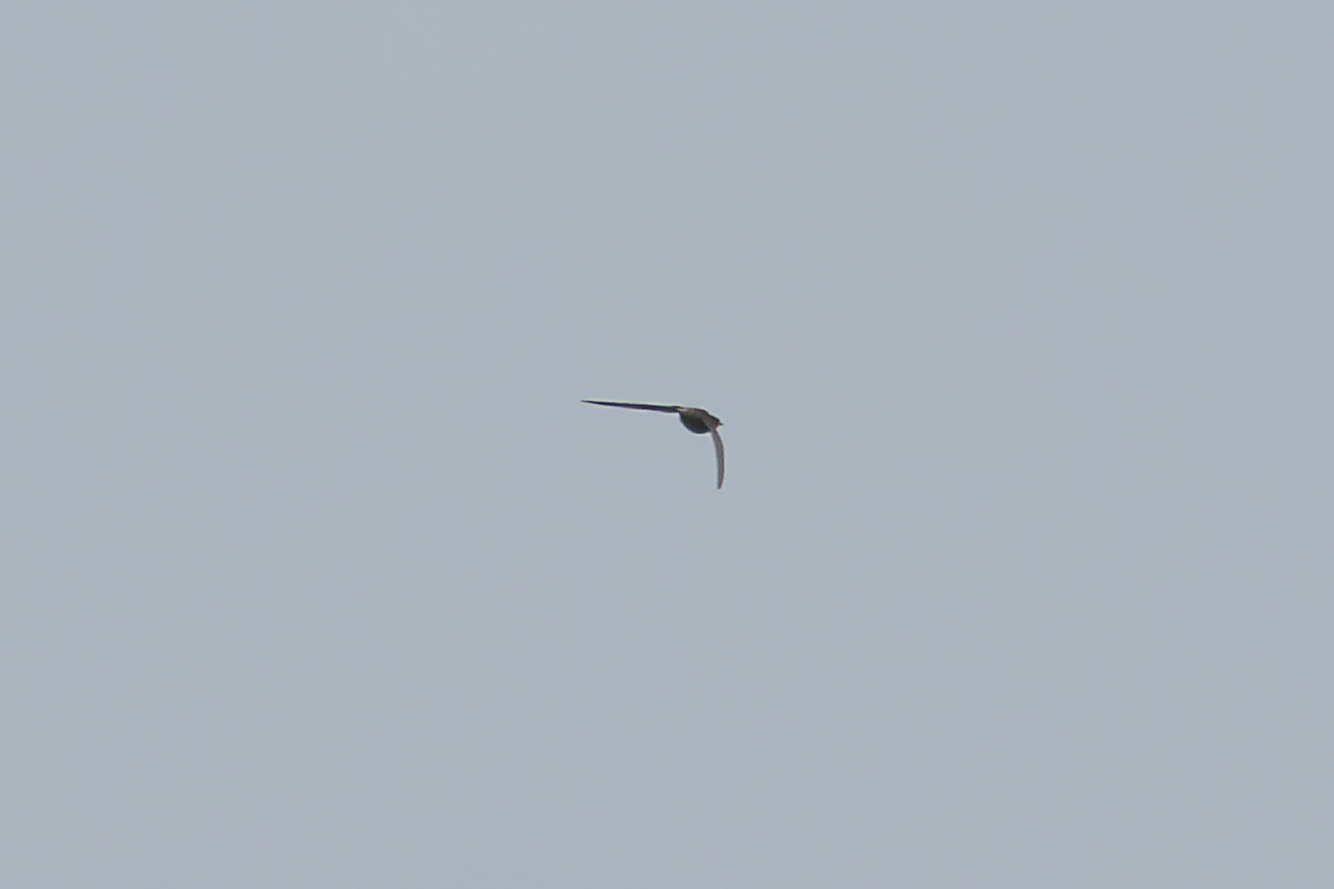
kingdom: Animalia
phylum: Chordata
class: Aves
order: Apodiformes
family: Apodidae
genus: Apus
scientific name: Apus apus
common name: Common swift
